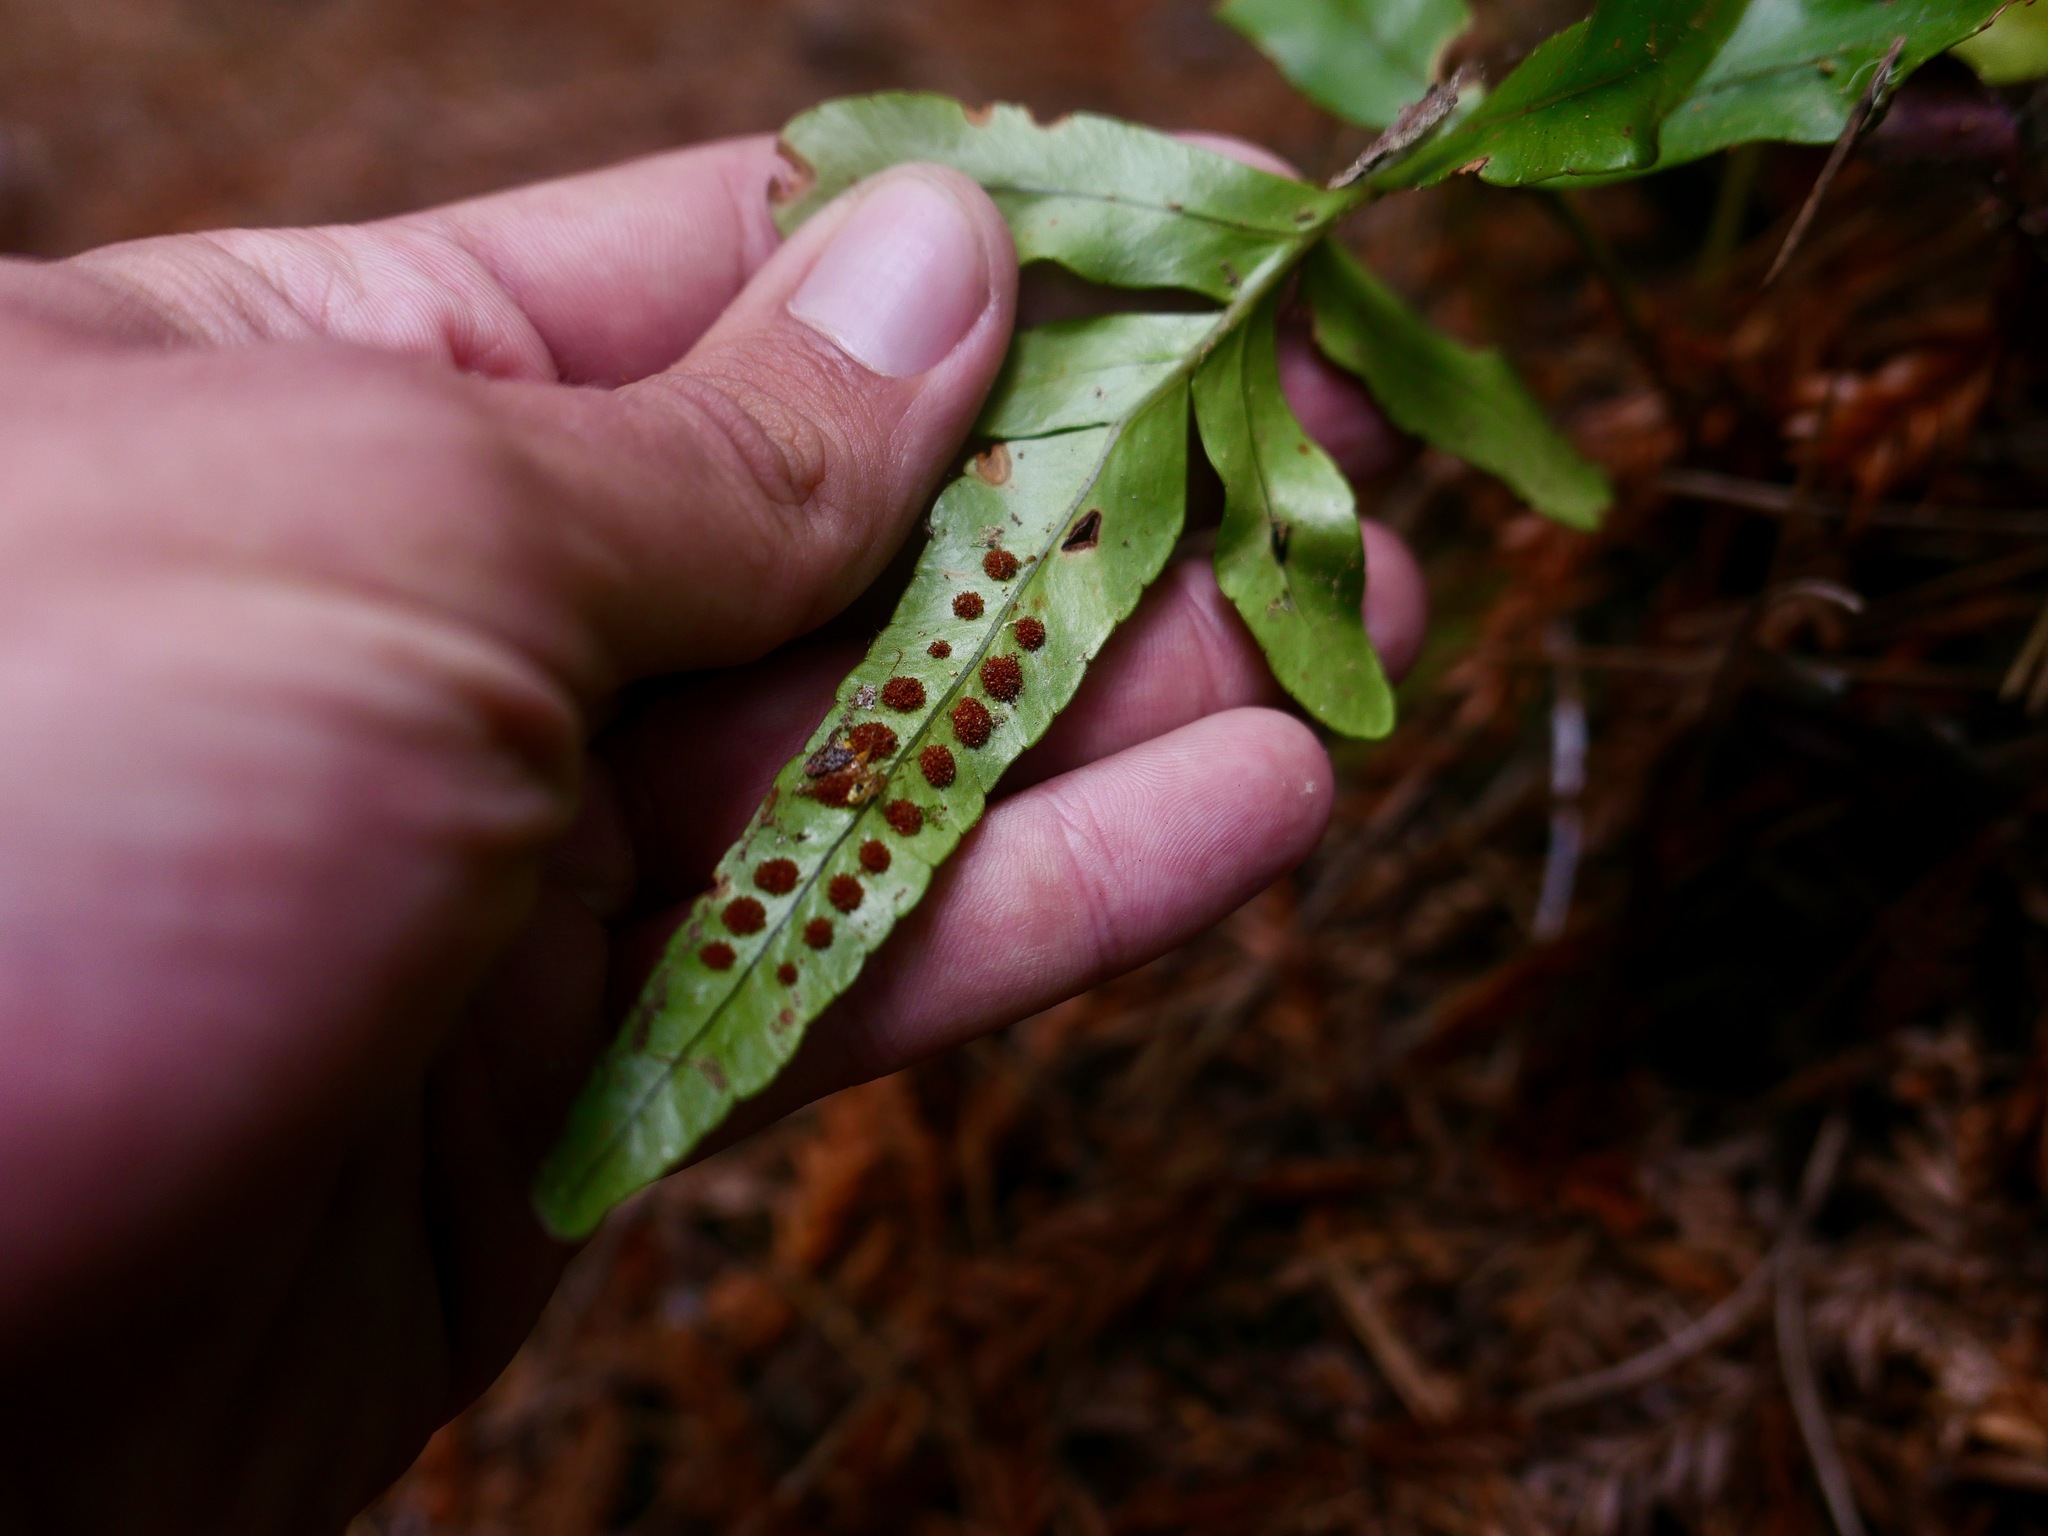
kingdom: Plantae
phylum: Tracheophyta
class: Polypodiopsida
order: Polypodiales
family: Polypodiaceae
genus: Polypodium
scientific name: Polypodium scouleri
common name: Scouler's polypody
